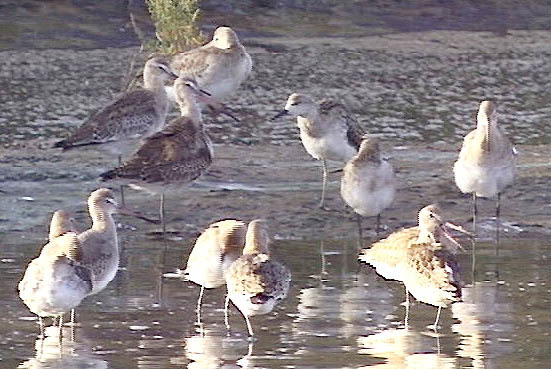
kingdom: Animalia
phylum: Chordata
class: Aves
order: Charadriiformes
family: Scolopacidae
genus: Calidris
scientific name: Calidris pugnax
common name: Ruff
